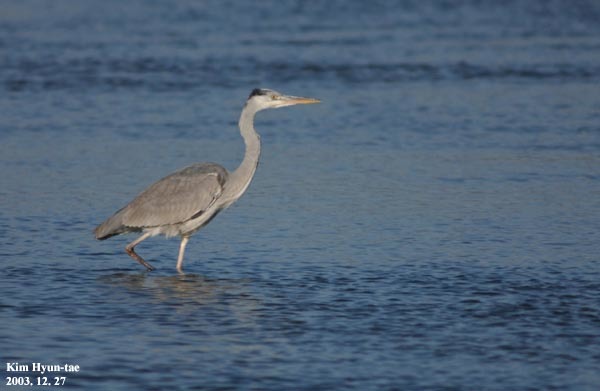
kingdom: Animalia
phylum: Chordata
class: Aves
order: Pelecaniformes
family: Ardeidae
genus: Ardea
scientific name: Ardea cinerea
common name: Grey heron
